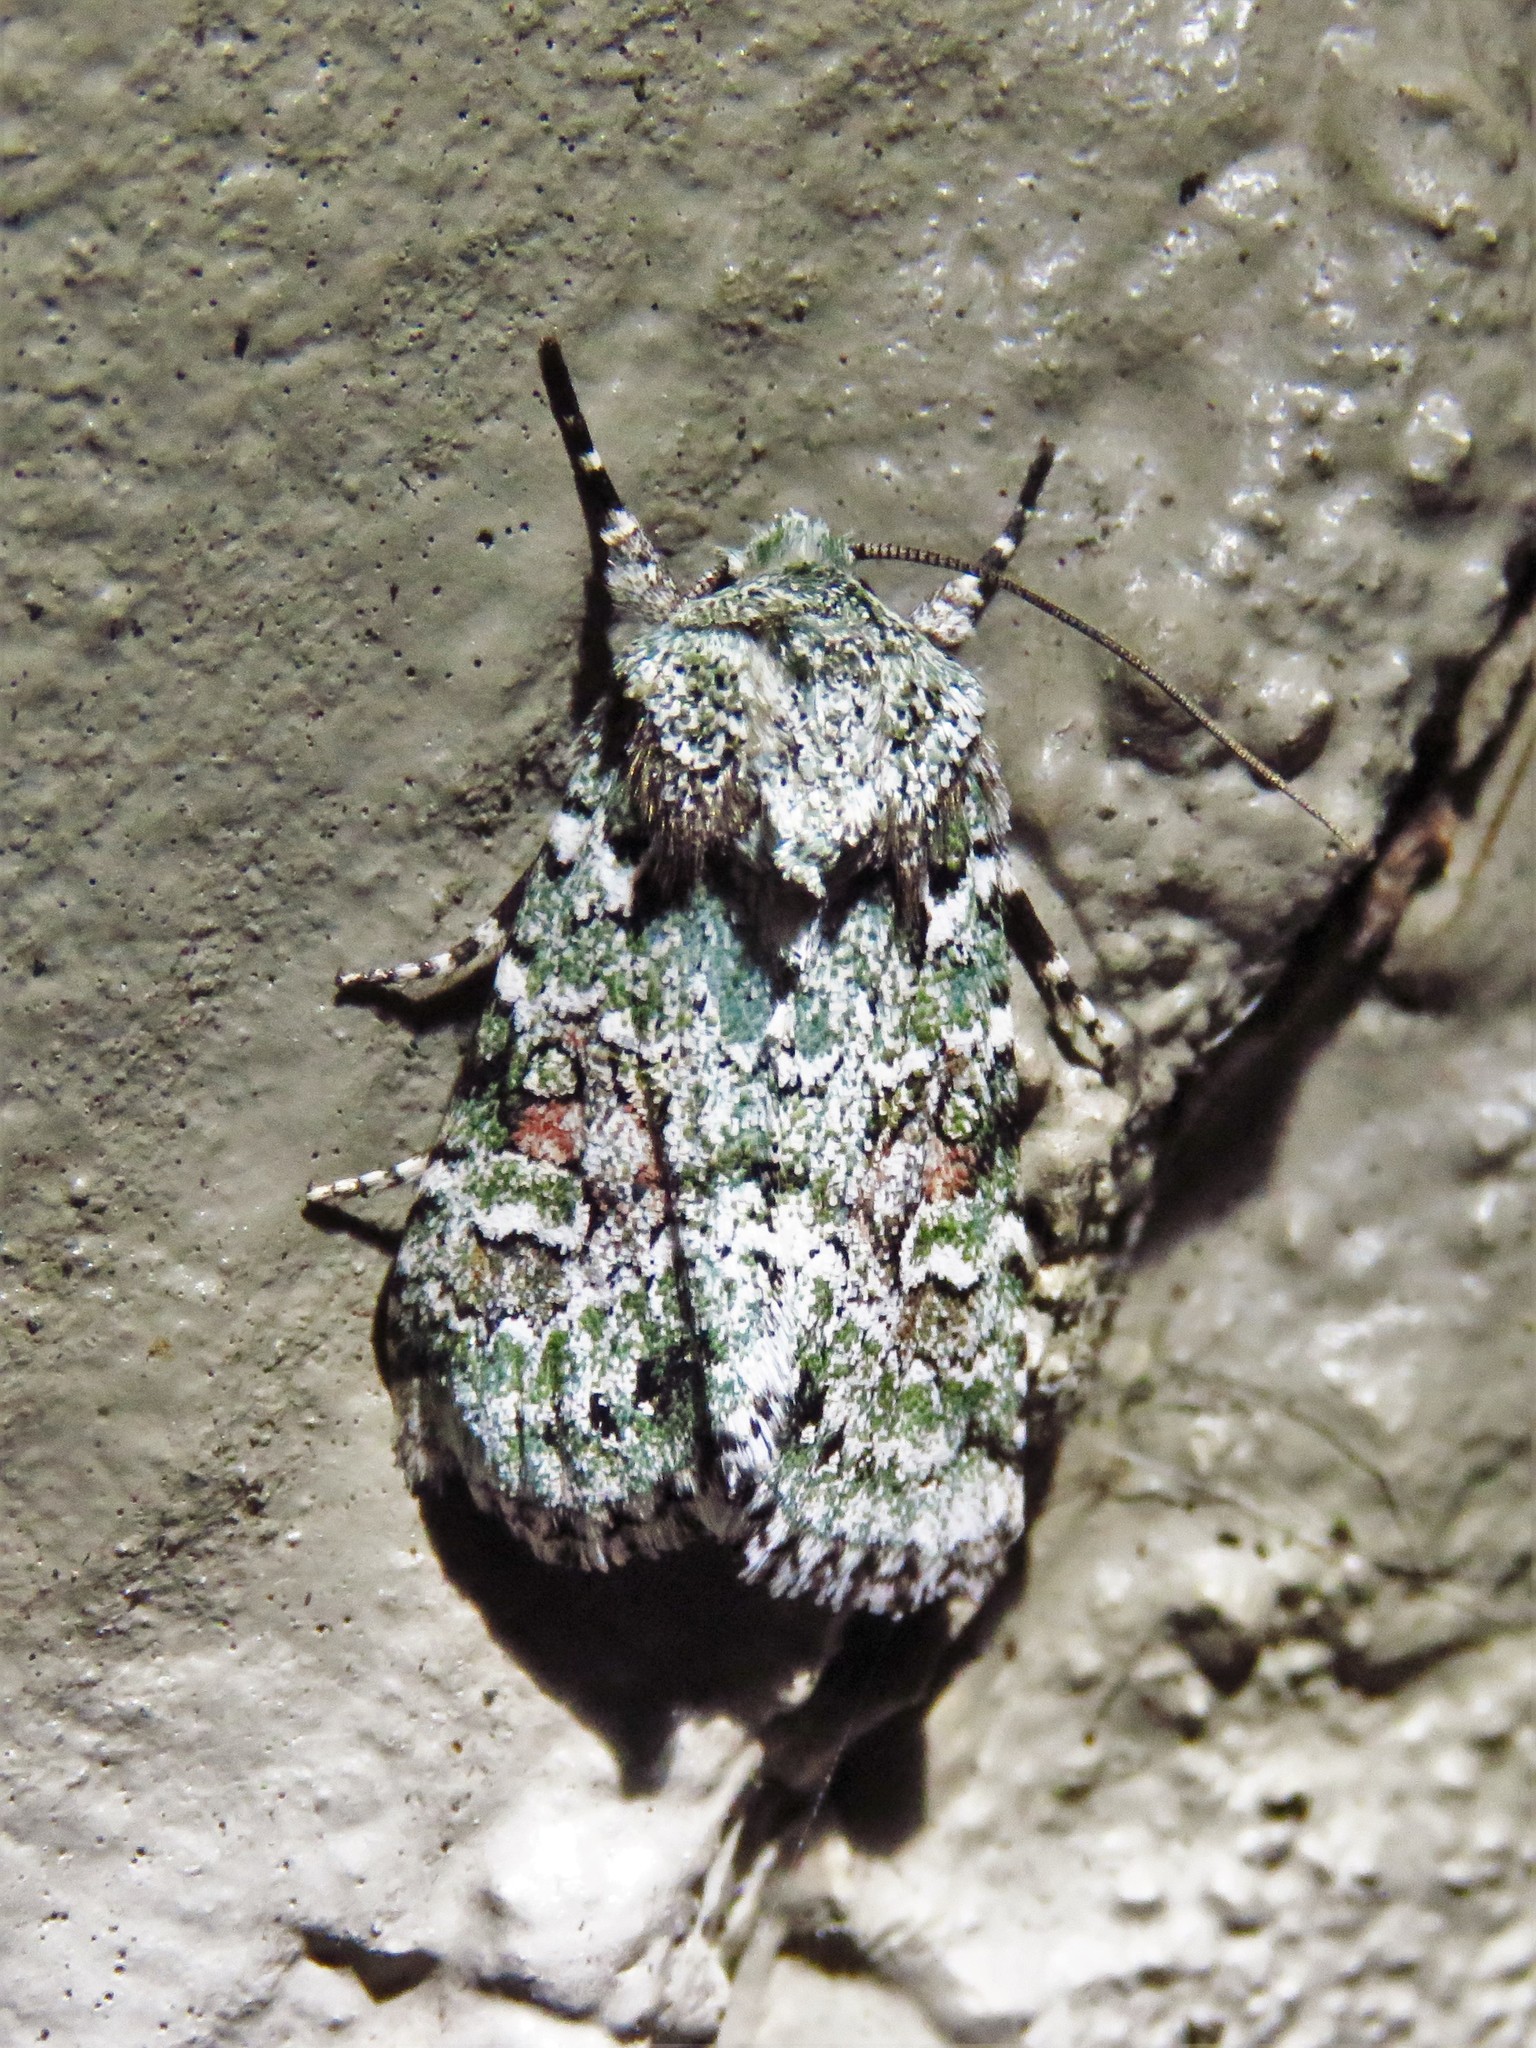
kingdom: Animalia
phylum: Arthropoda
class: Insecta
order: Lepidoptera
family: Noctuidae
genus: Lacinipolia
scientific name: Lacinipolia laudabilis
